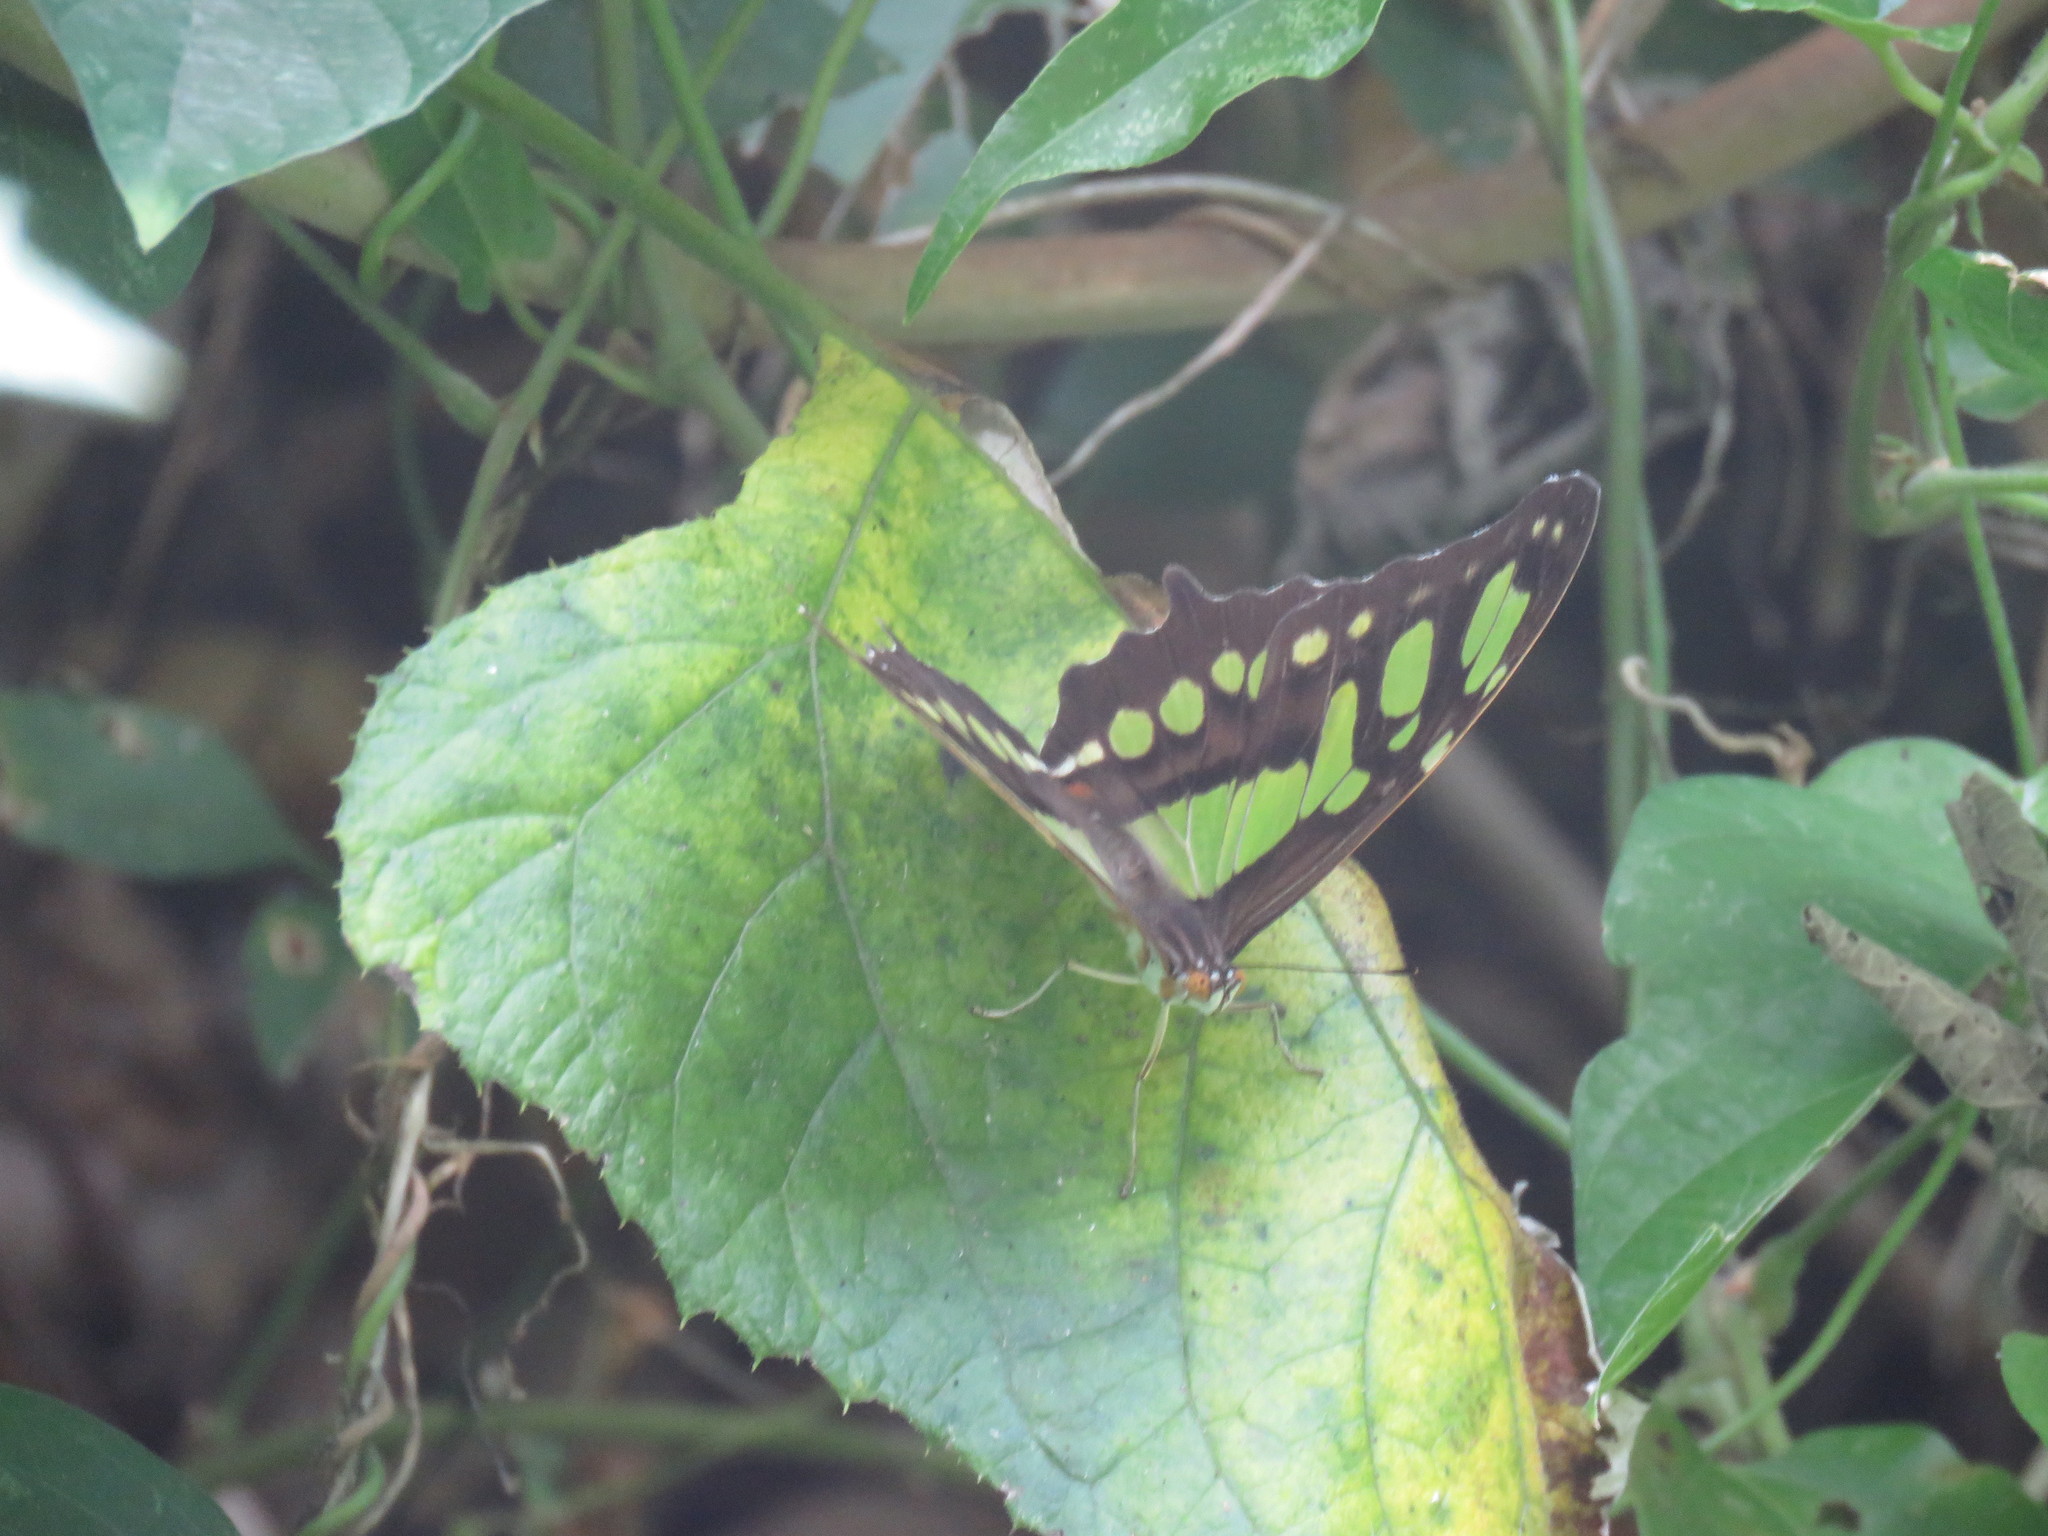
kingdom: Animalia
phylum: Arthropoda
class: Insecta
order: Lepidoptera
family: Nymphalidae
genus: Siproeta
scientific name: Siproeta stelenes
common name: Malachite
